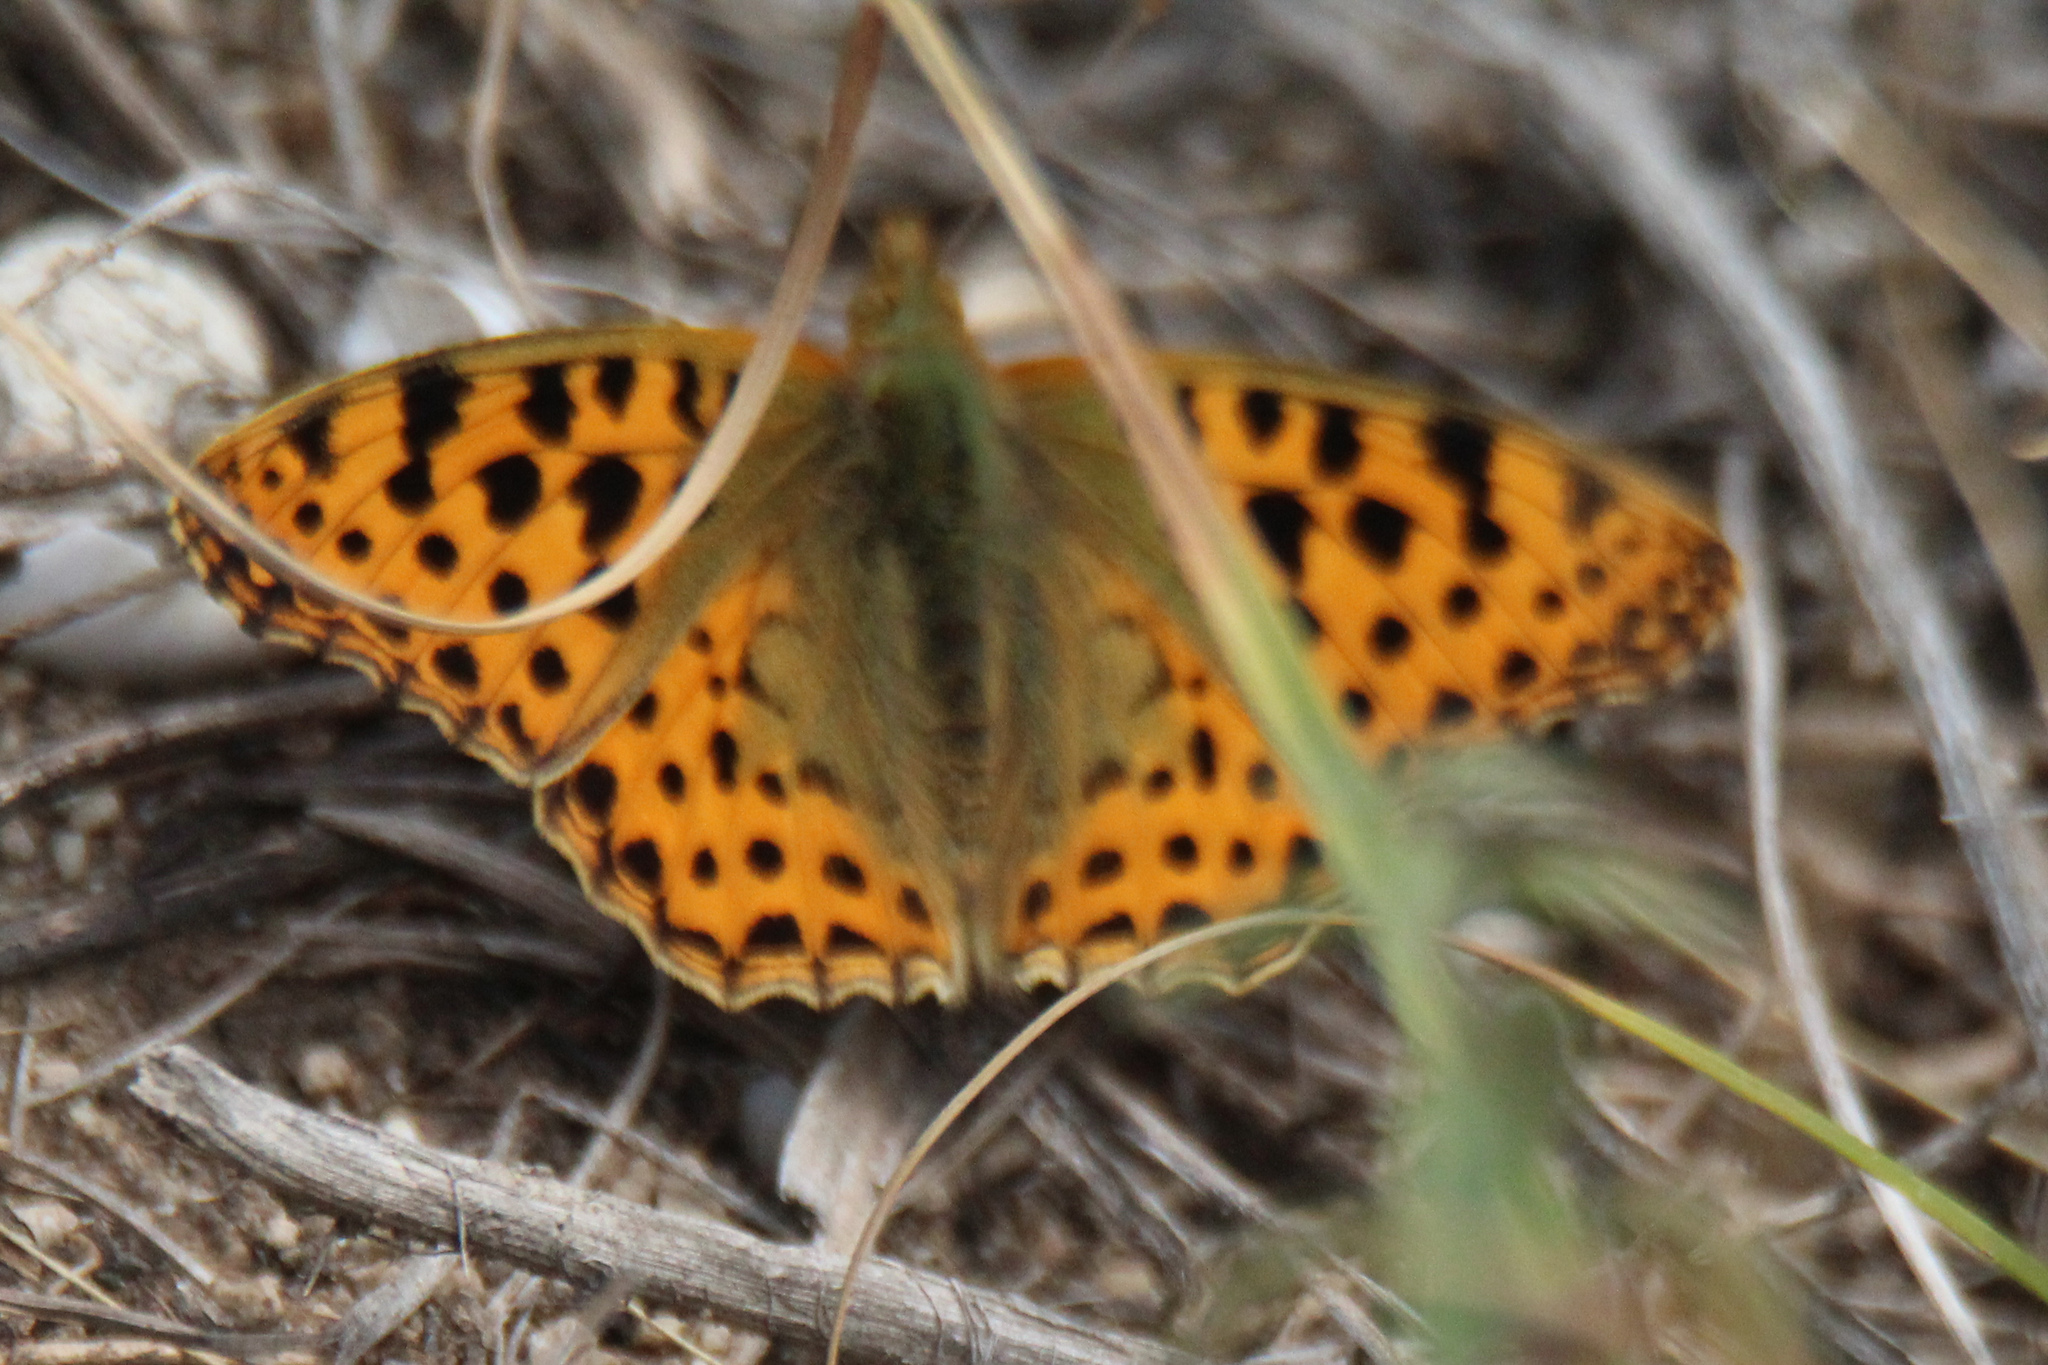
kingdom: Animalia
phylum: Arthropoda
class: Insecta
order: Lepidoptera
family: Nymphalidae
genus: Issoria
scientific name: Issoria lathonia
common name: Queen of spain fritillary
